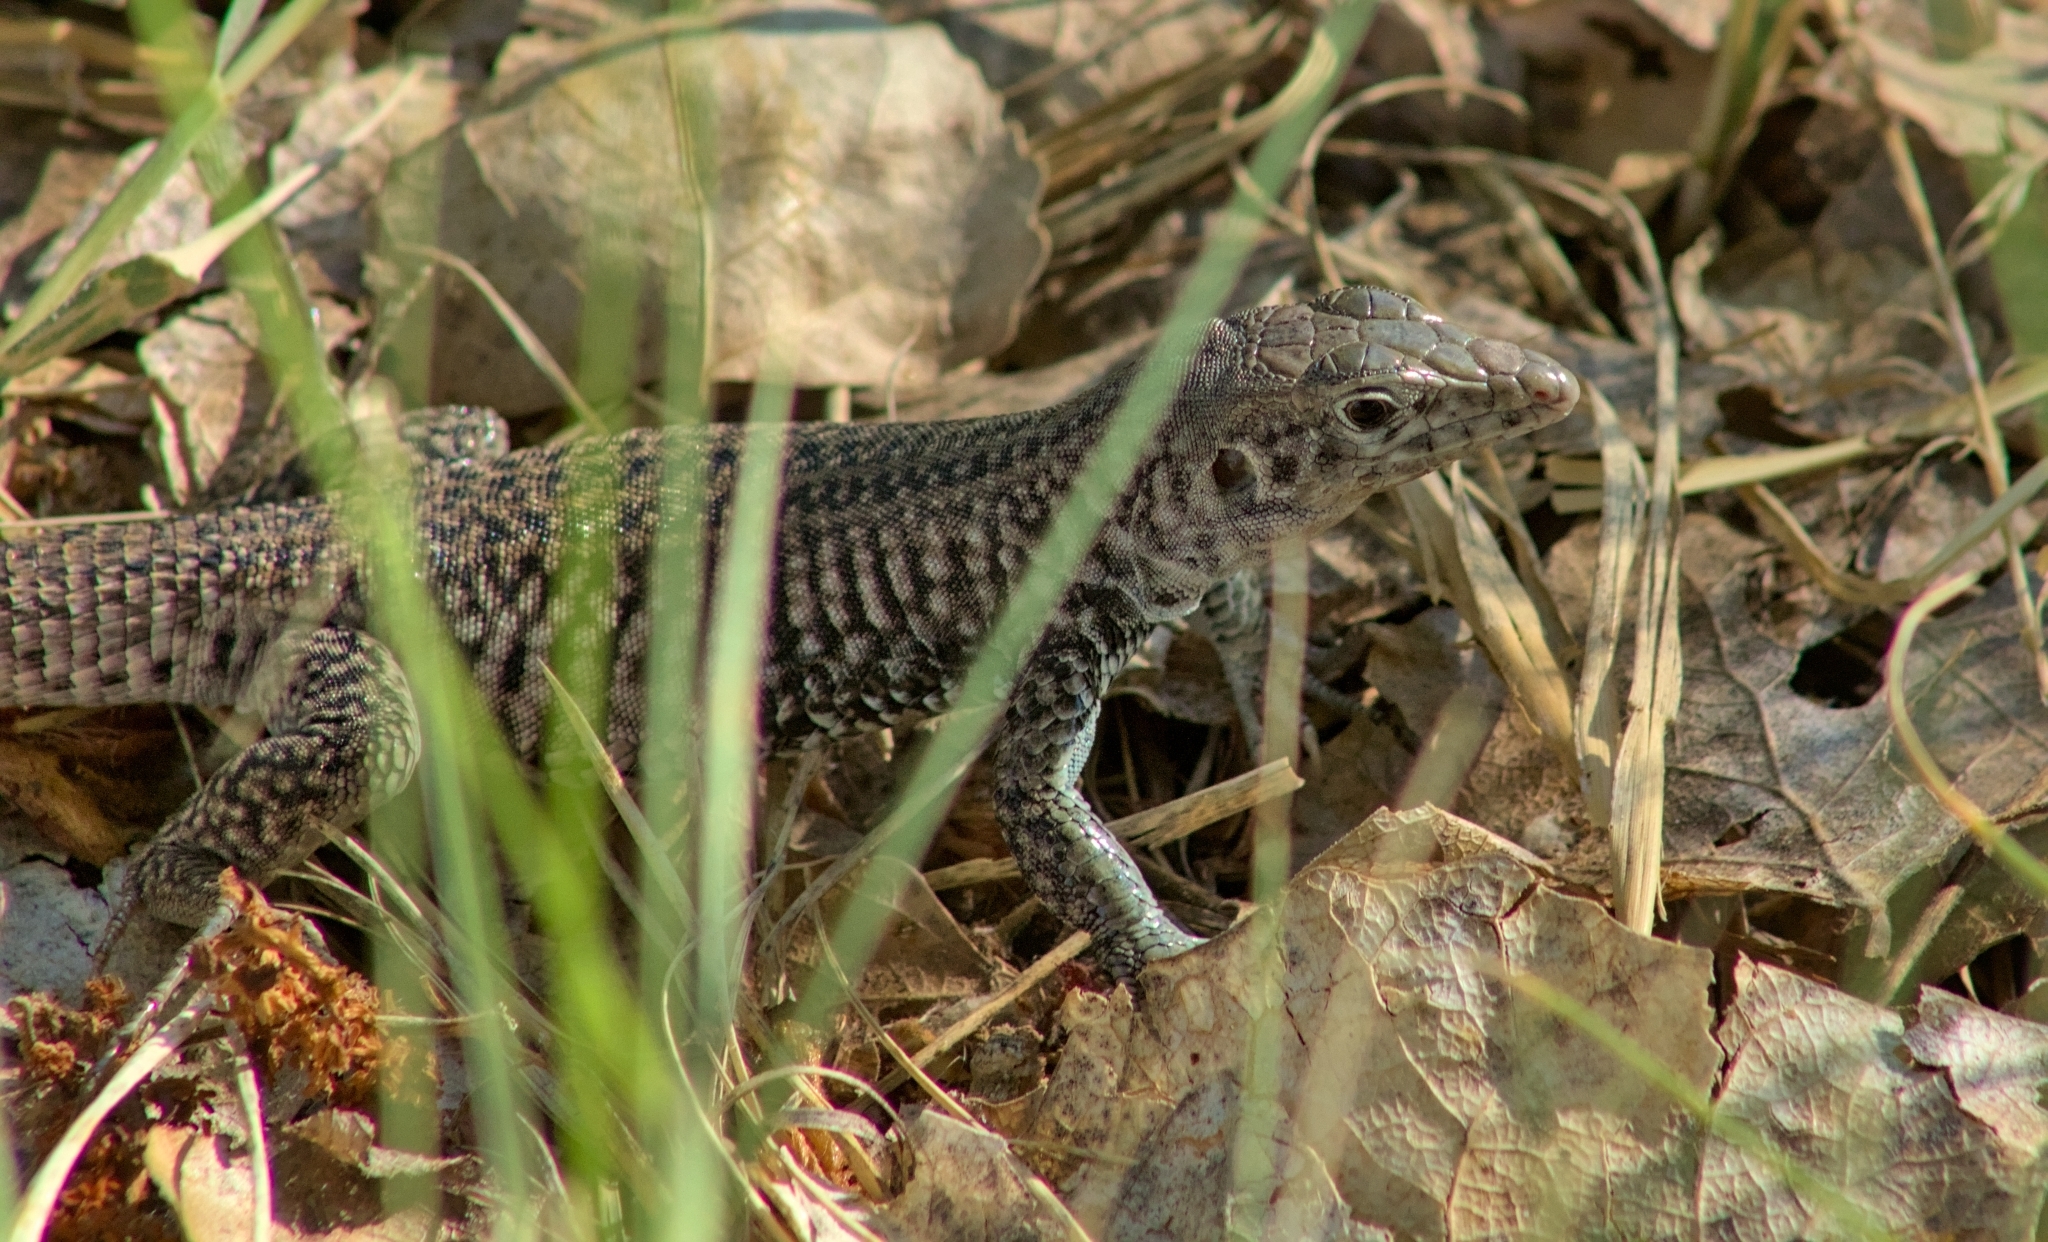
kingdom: Animalia
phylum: Chordata
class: Squamata
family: Teiidae
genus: Aspidoscelis
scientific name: Aspidoscelis tigris
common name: Tiger whiptail
